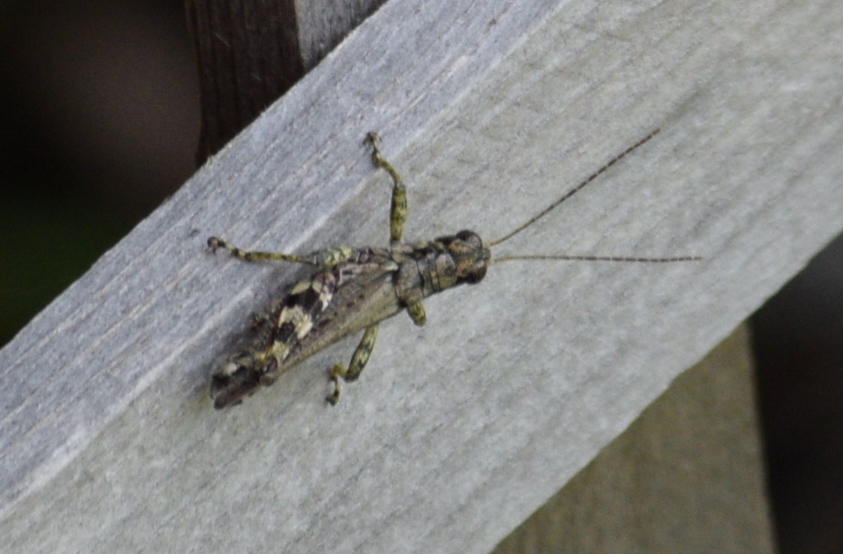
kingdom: Animalia
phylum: Arthropoda
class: Insecta
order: Orthoptera
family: Acrididae
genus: Melanoplus
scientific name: Melanoplus punctulatus
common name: Pine-tree spur-throat grasshopper
